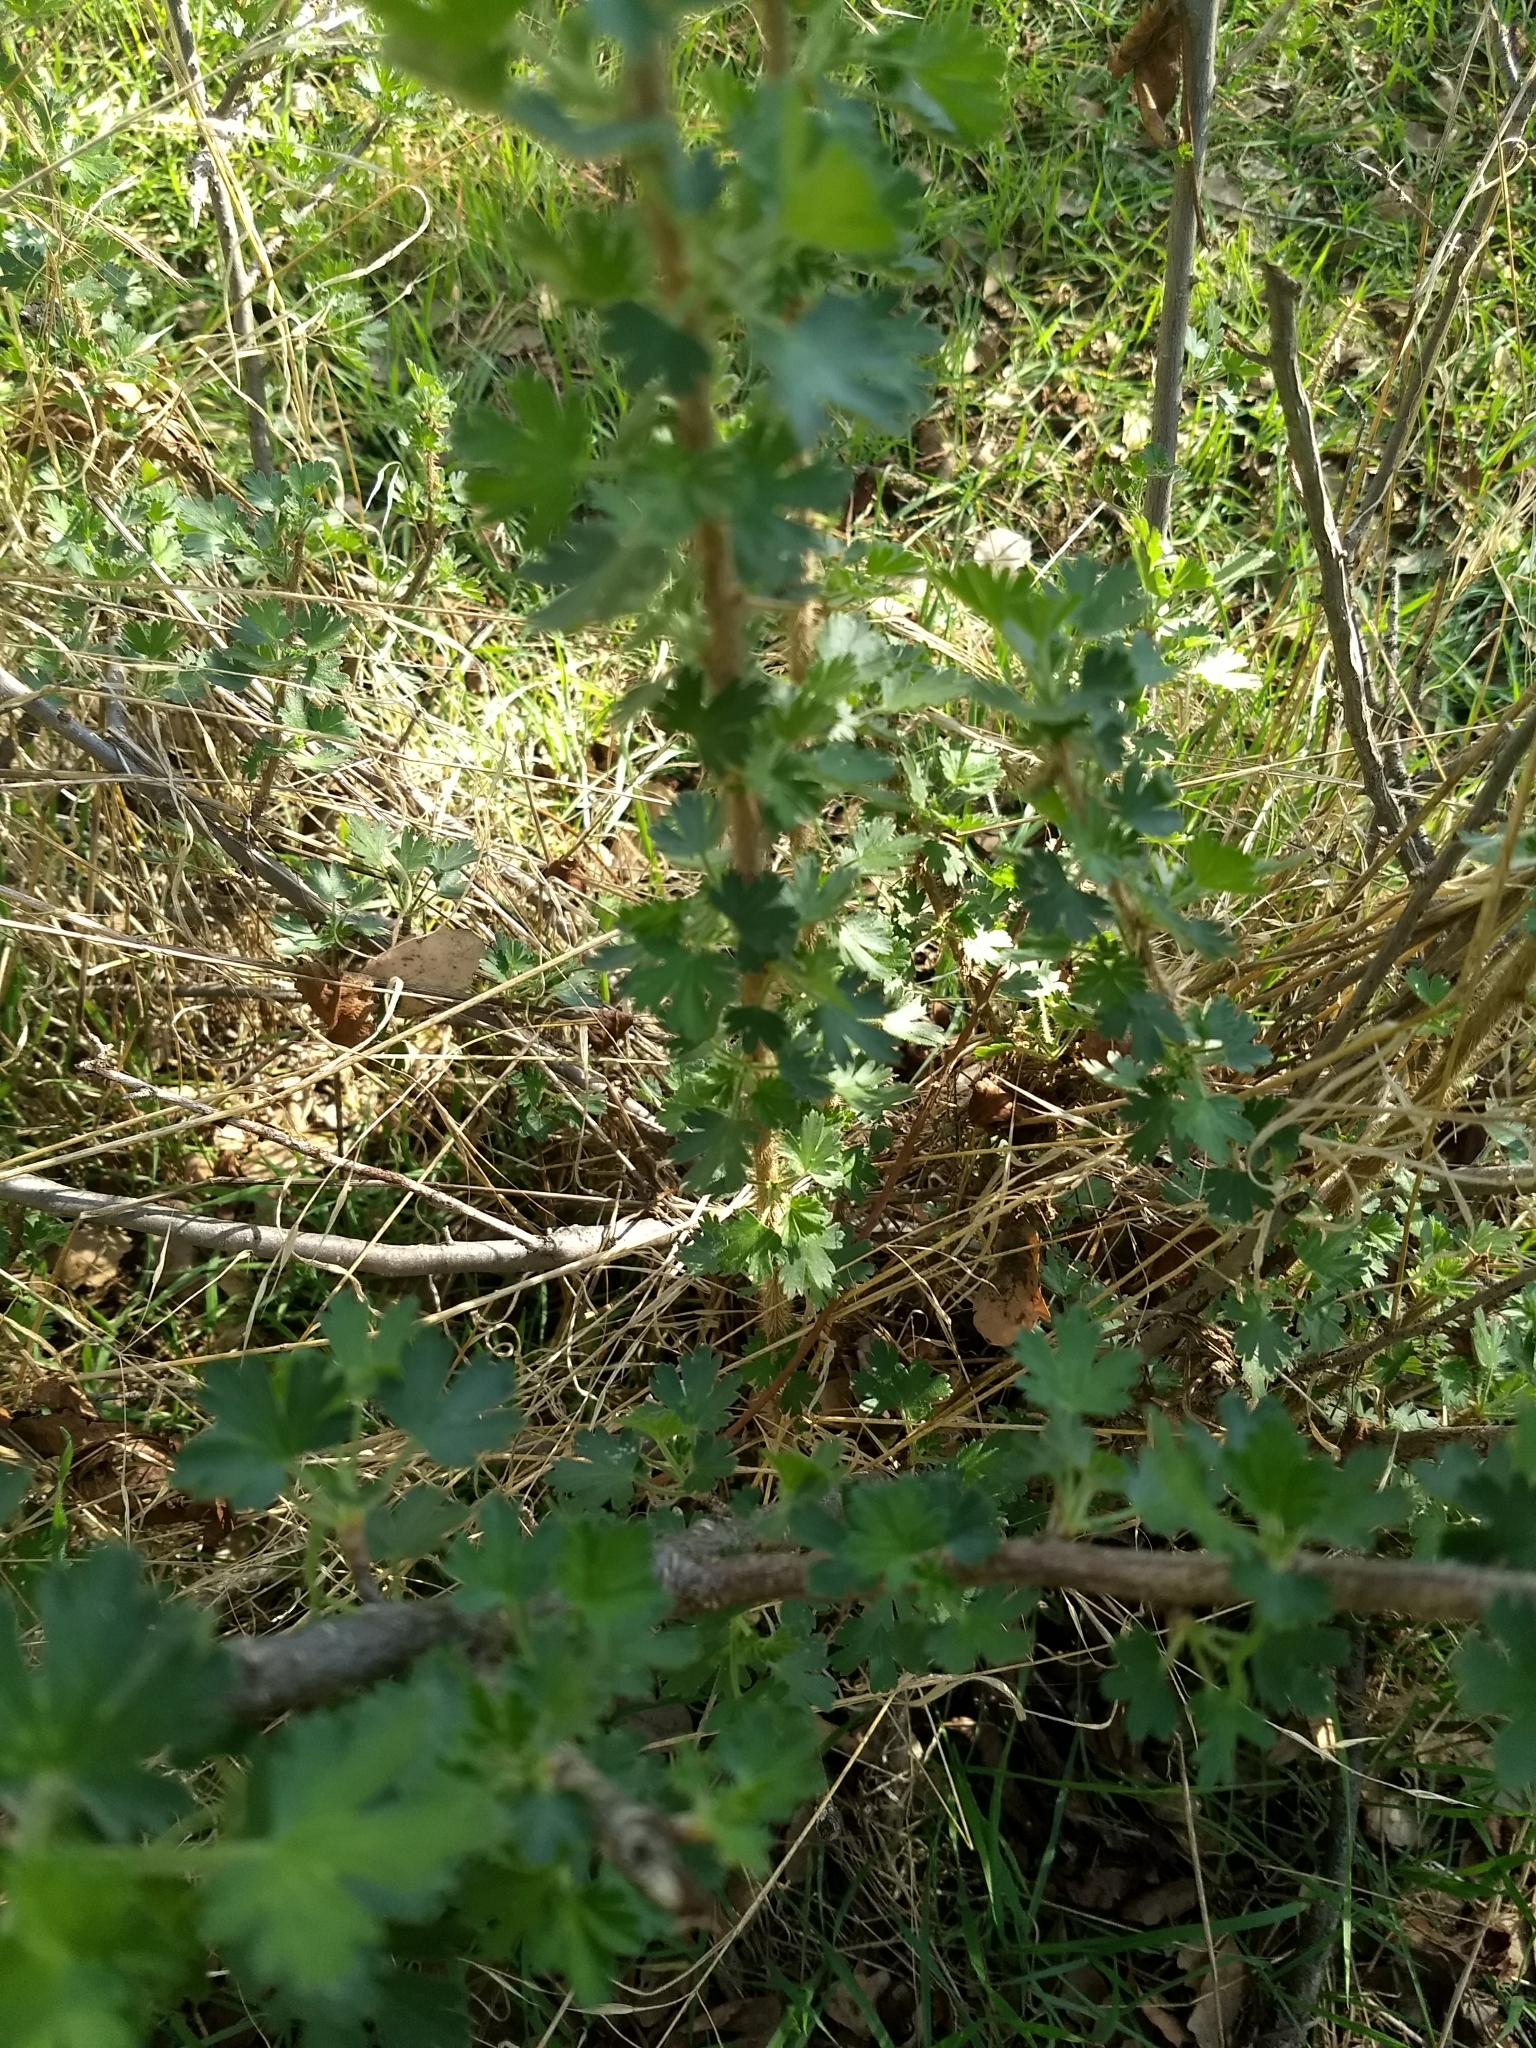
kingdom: Plantae
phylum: Tracheophyta
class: Magnoliopsida
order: Saxifragales
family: Grossulariaceae
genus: Ribes
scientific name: Ribes quercetorum
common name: Oak gooseberry
